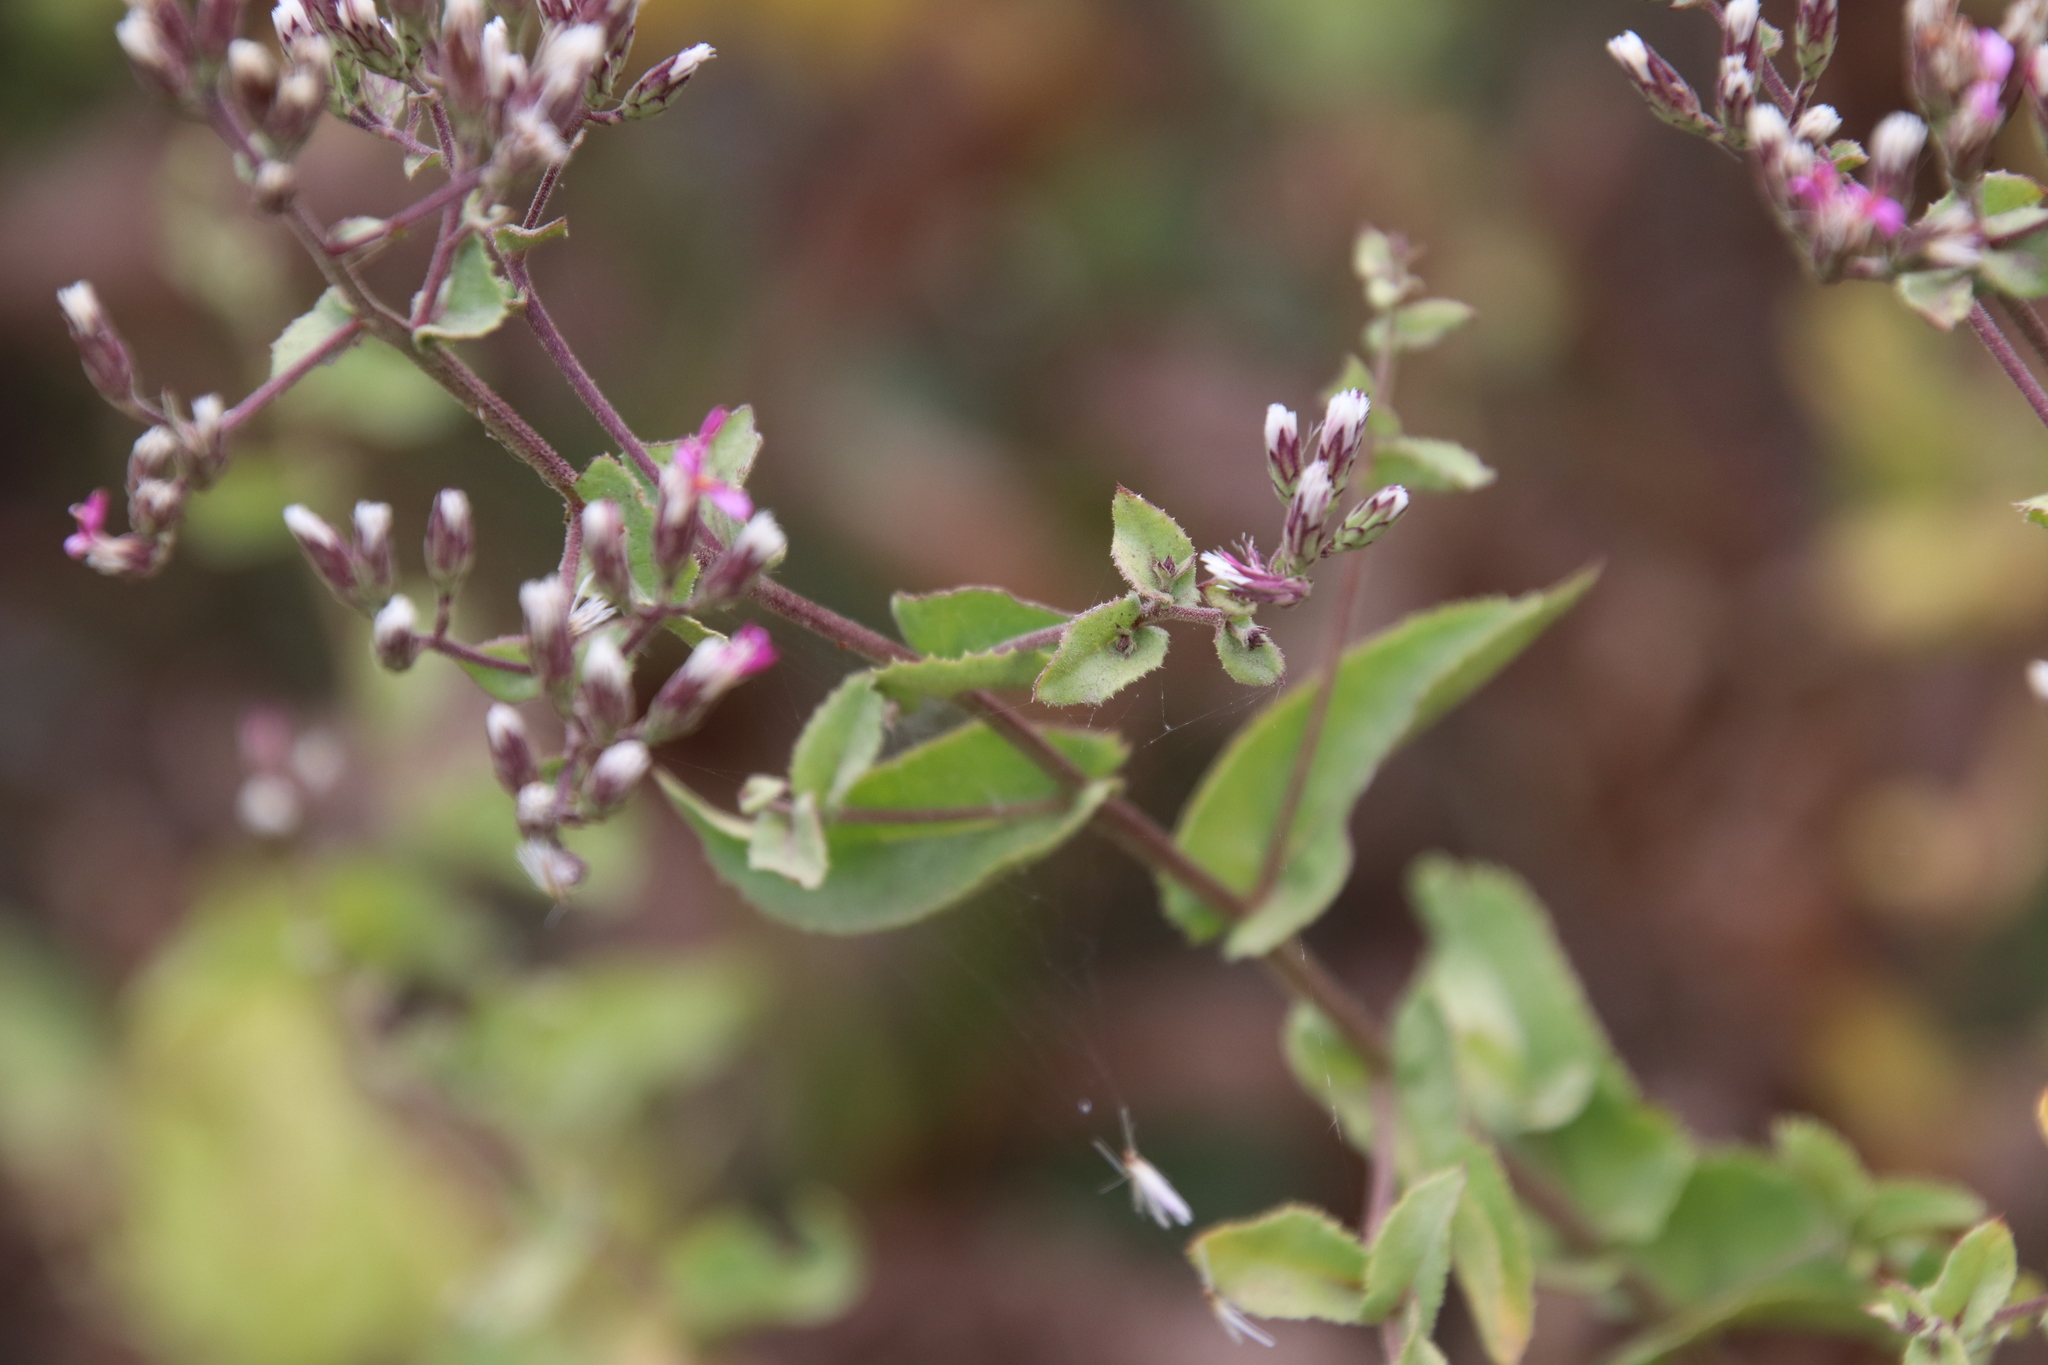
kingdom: Plantae
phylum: Tracheophyta
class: Magnoliopsida
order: Asterales
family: Asteraceae
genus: Acourtia
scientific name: Acourtia microcephala
